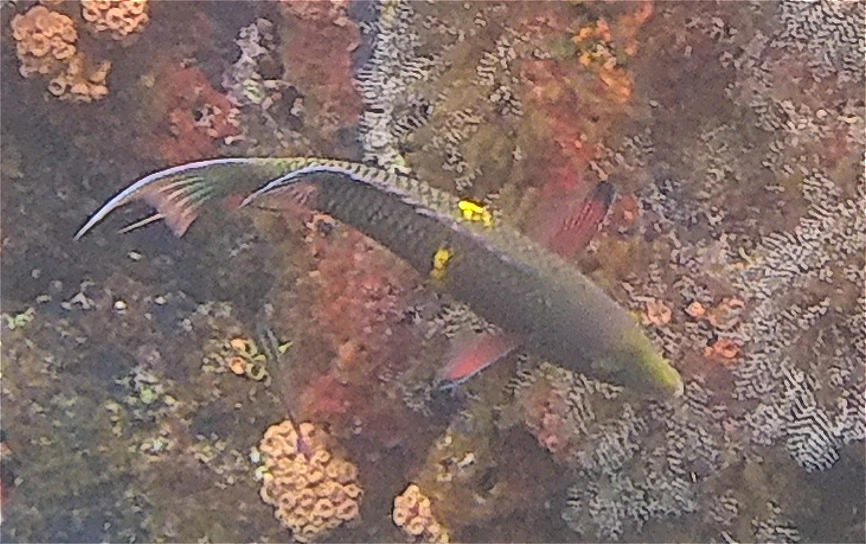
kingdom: Animalia
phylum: Chordata
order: Perciformes
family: Labridae
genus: Bodianus
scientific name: Bodianus diplotaenia
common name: Mexican hogfish
